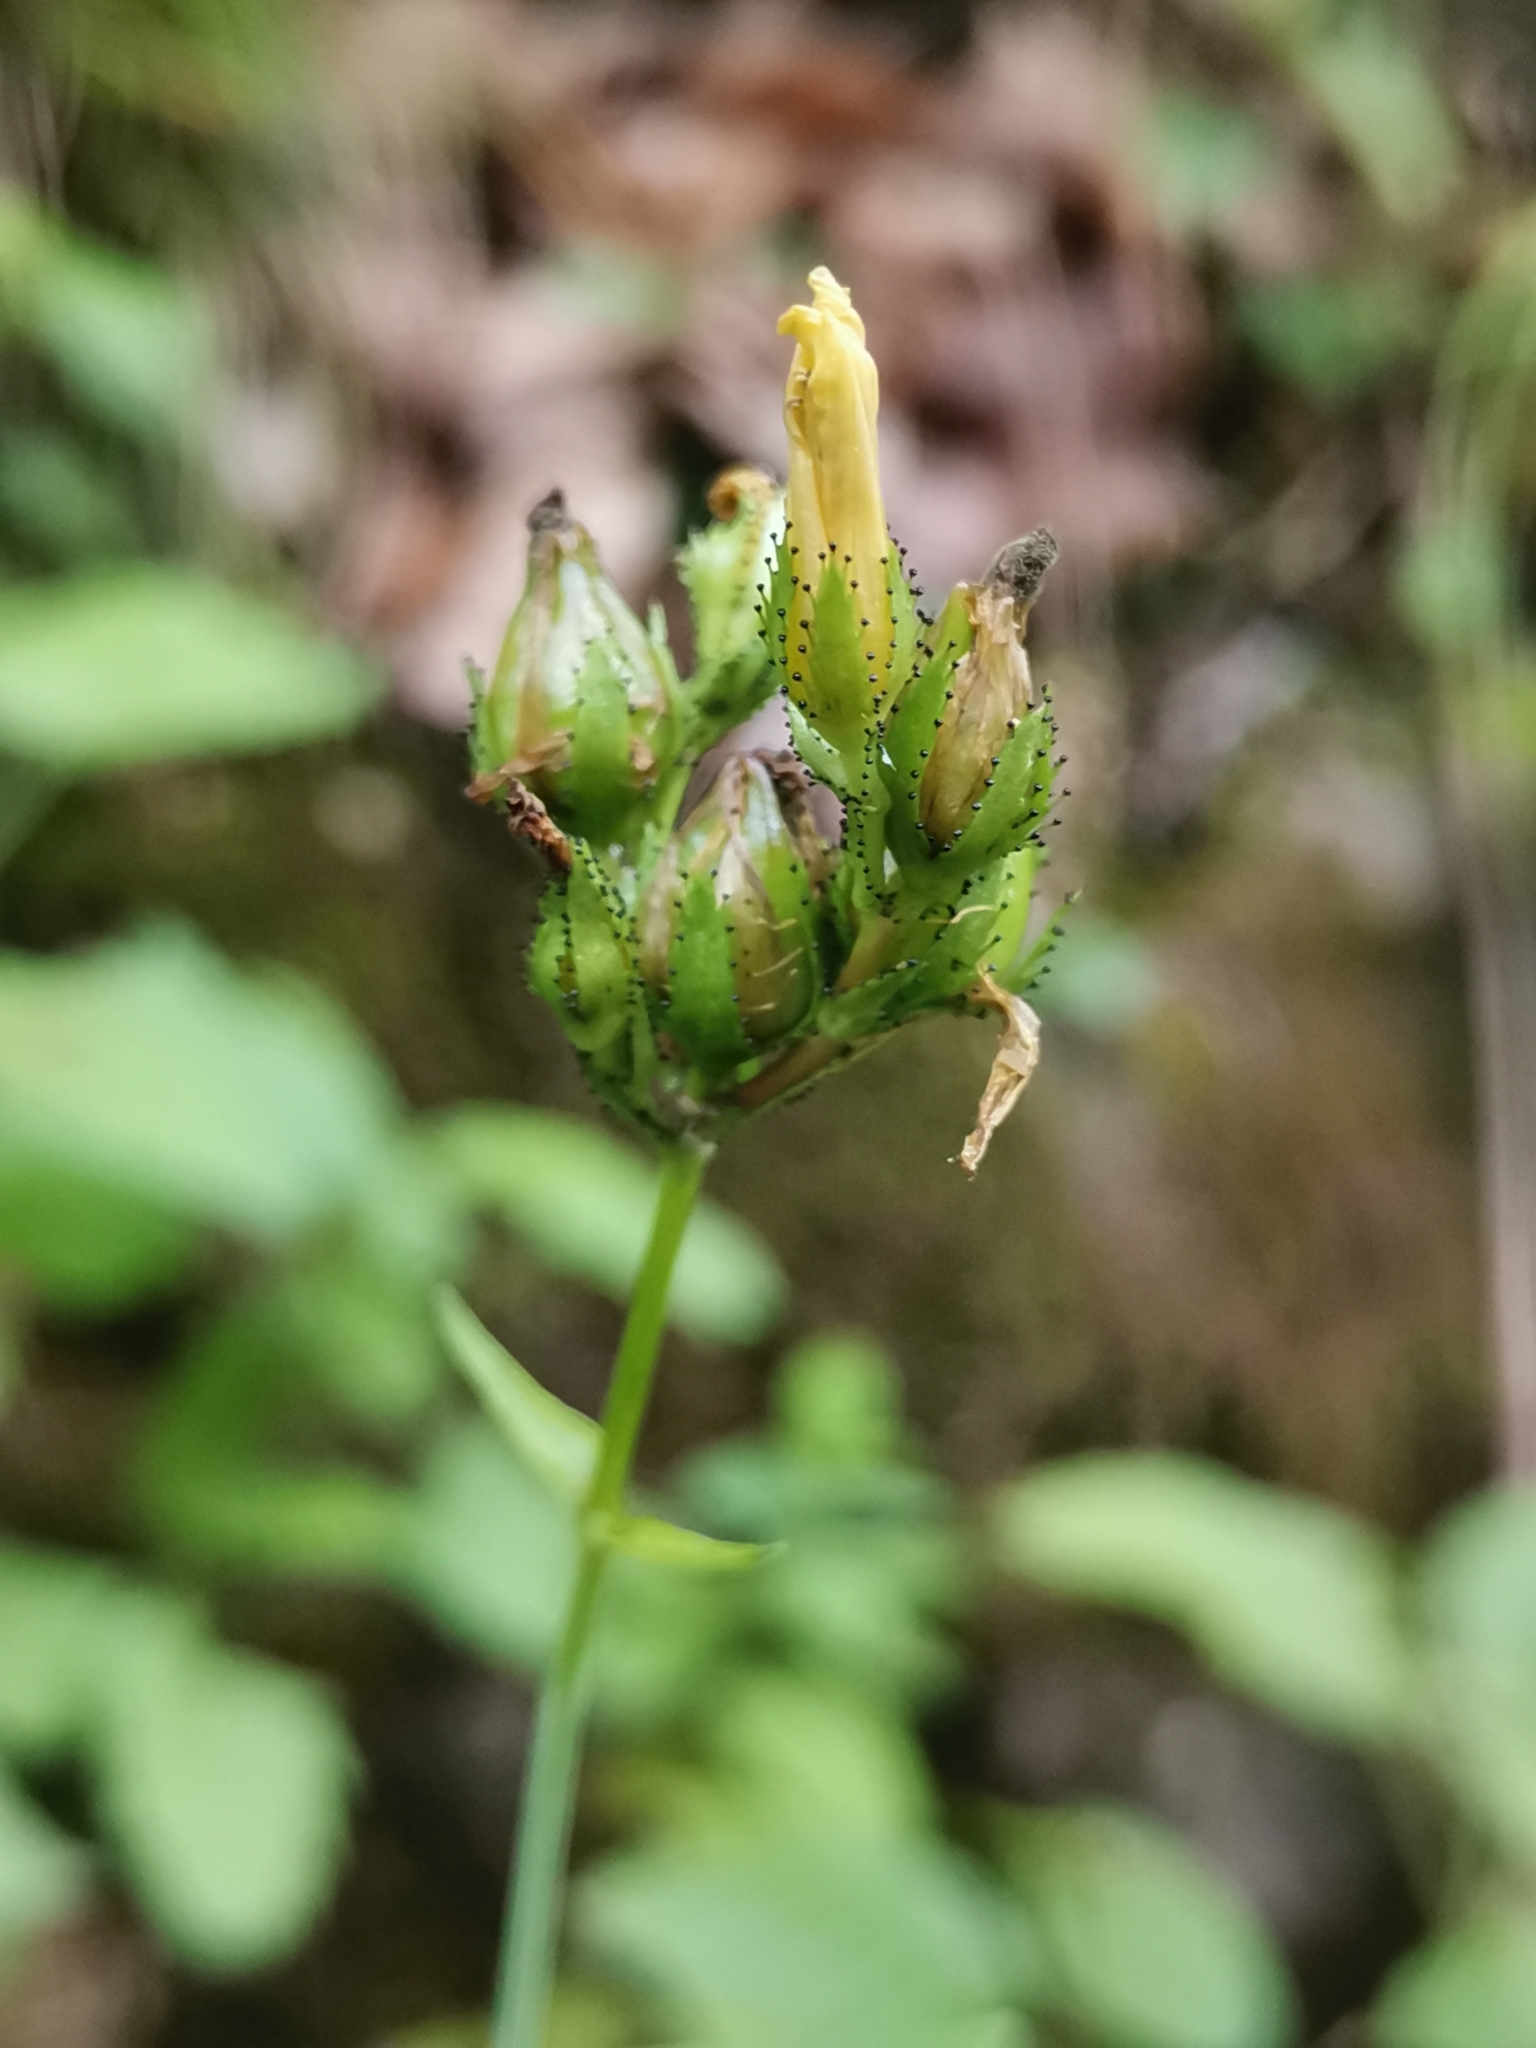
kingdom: Plantae
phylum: Tracheophyta
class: Magnoliopsida
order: Malpighiales
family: Hypericaceae
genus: Hypericum
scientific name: Hypericum montanum
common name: Pale st. john's-wort
